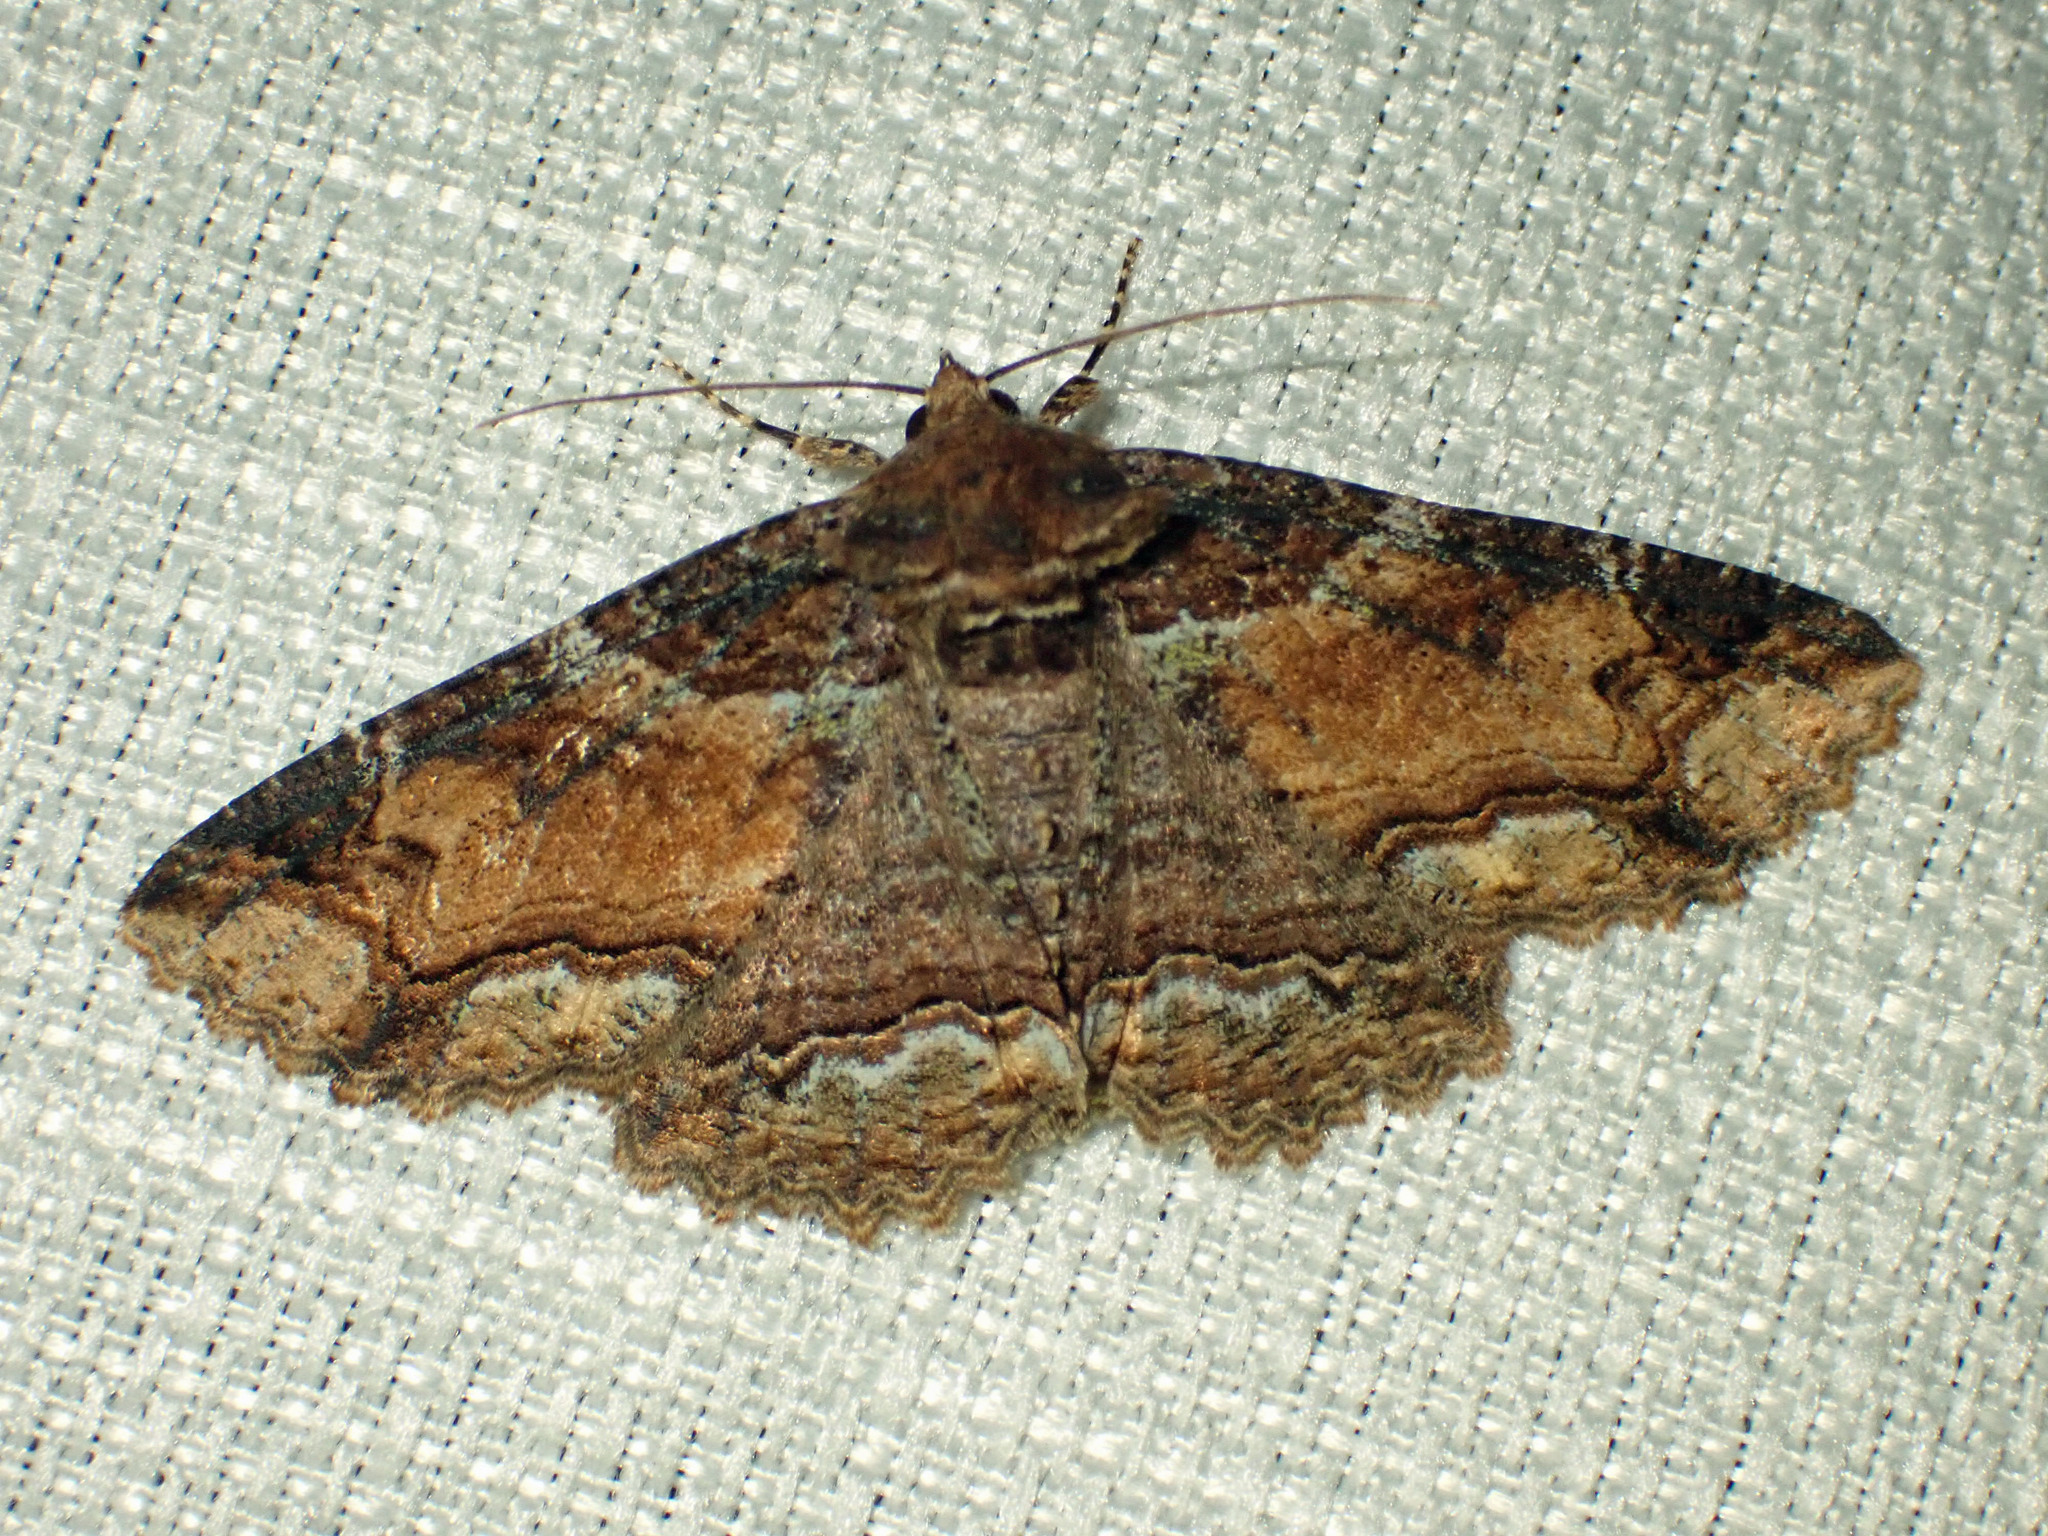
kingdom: Animalia
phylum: Arthropoda
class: Insecta
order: Lepidoptera
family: Erebidae
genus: Zale
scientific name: Zale minerea
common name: Colorful zale moth
